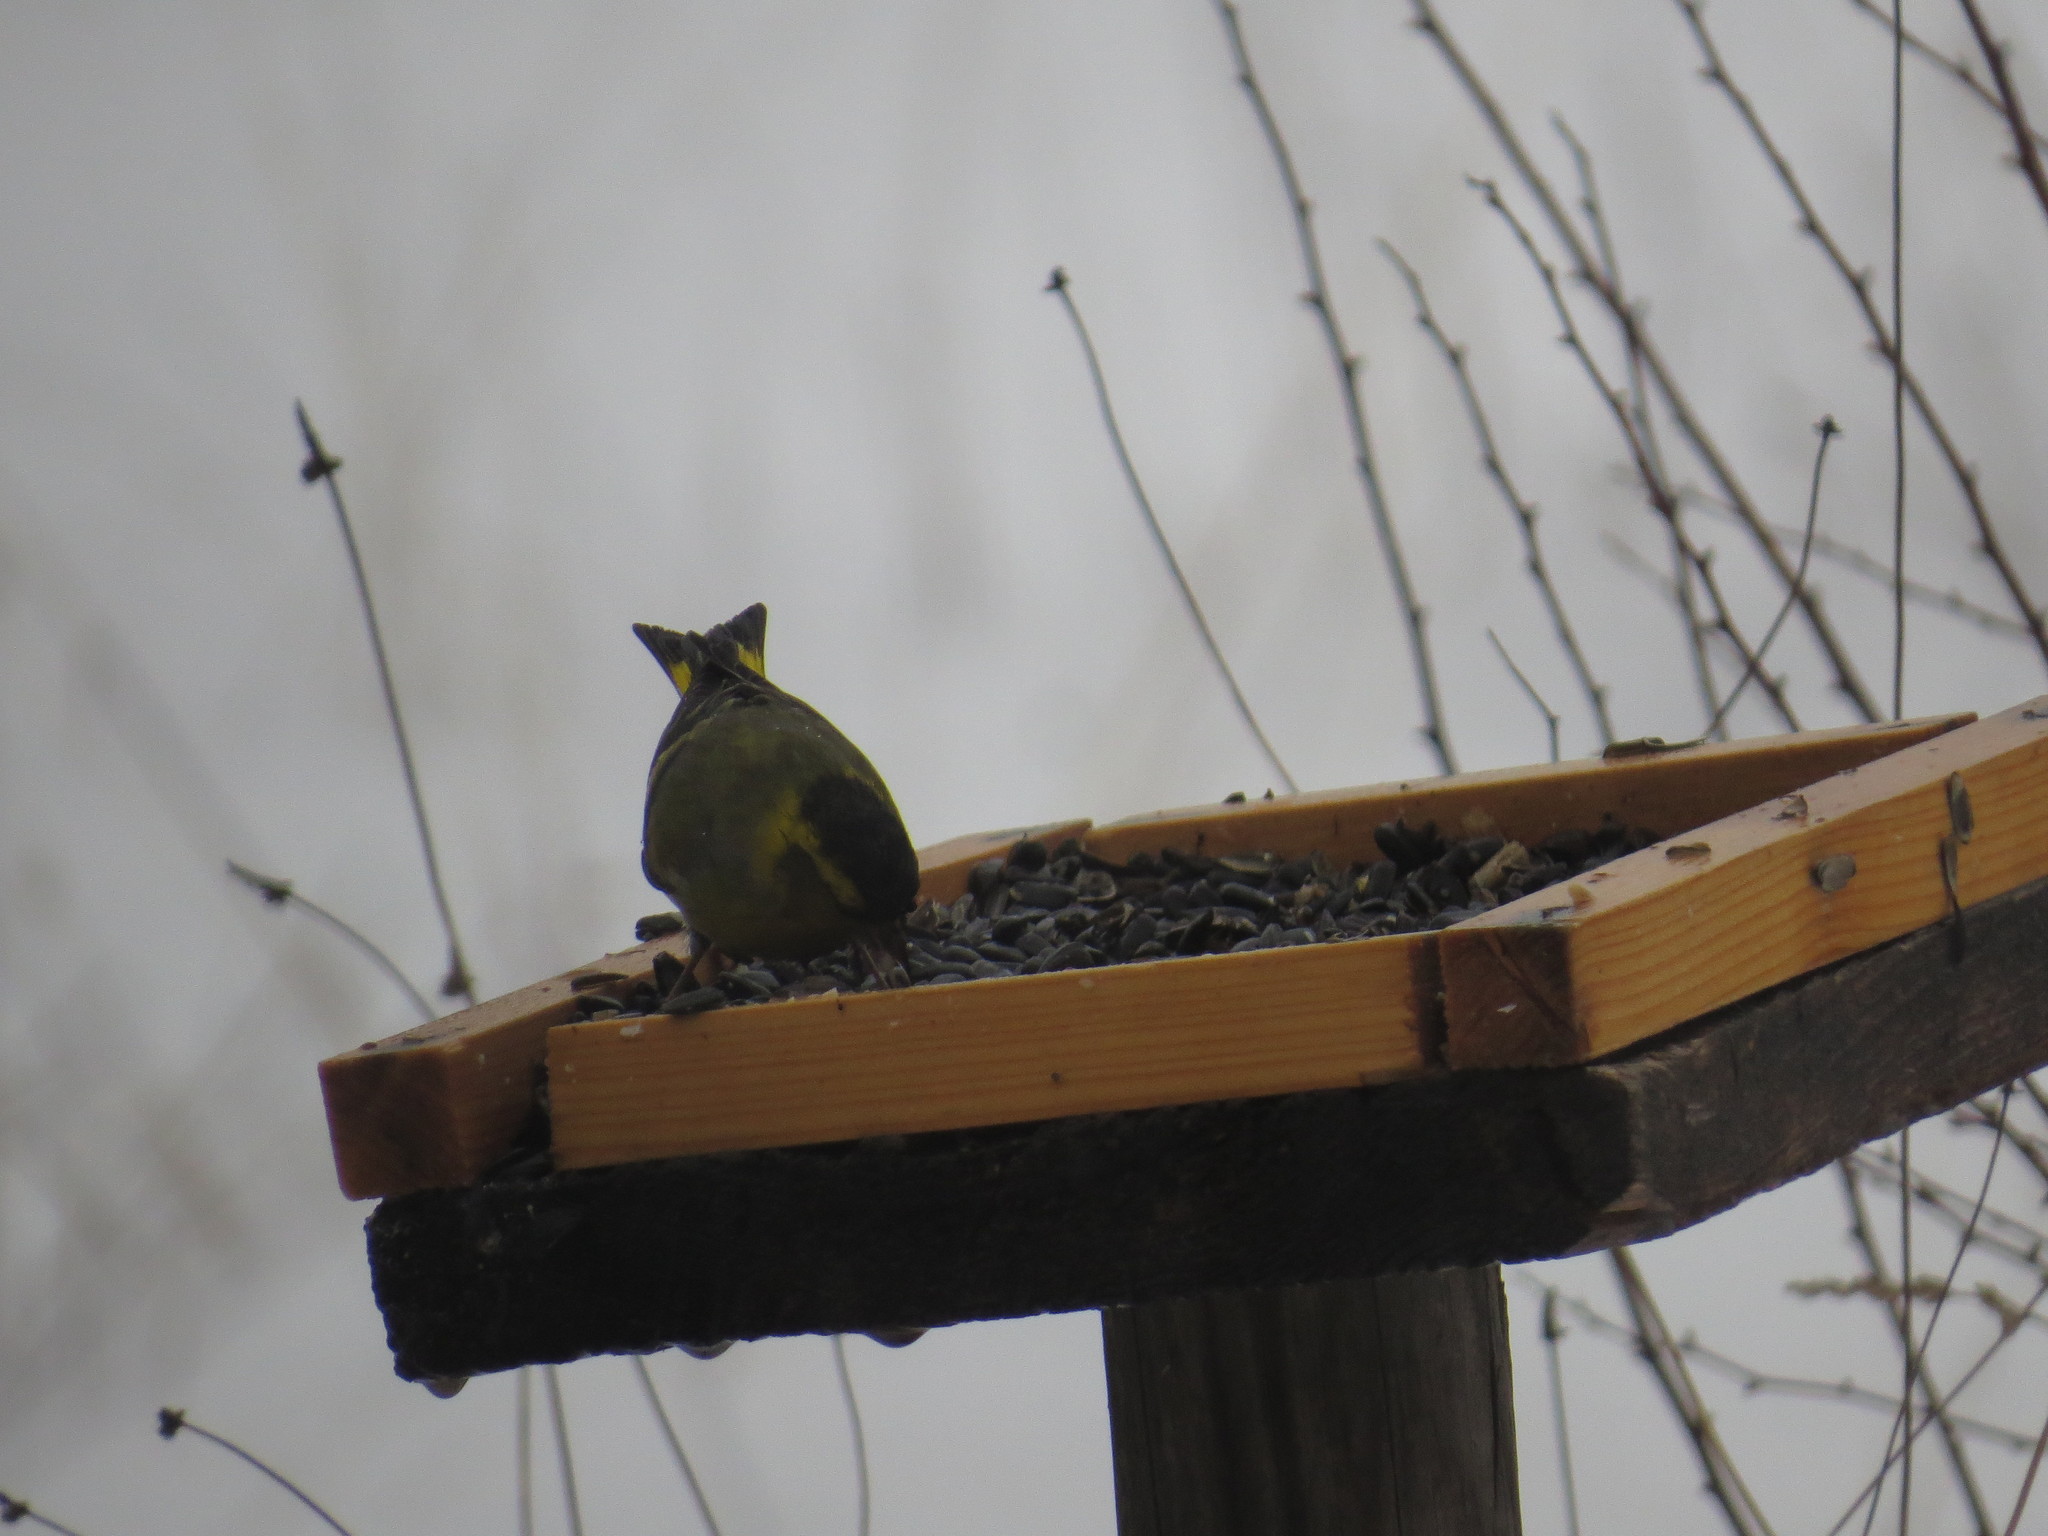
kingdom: Animalia
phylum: Chordata
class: Aves
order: Passeriformes
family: Fringillidae
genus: Spinus
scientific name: Spinus spinus
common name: Eurasian siskin
